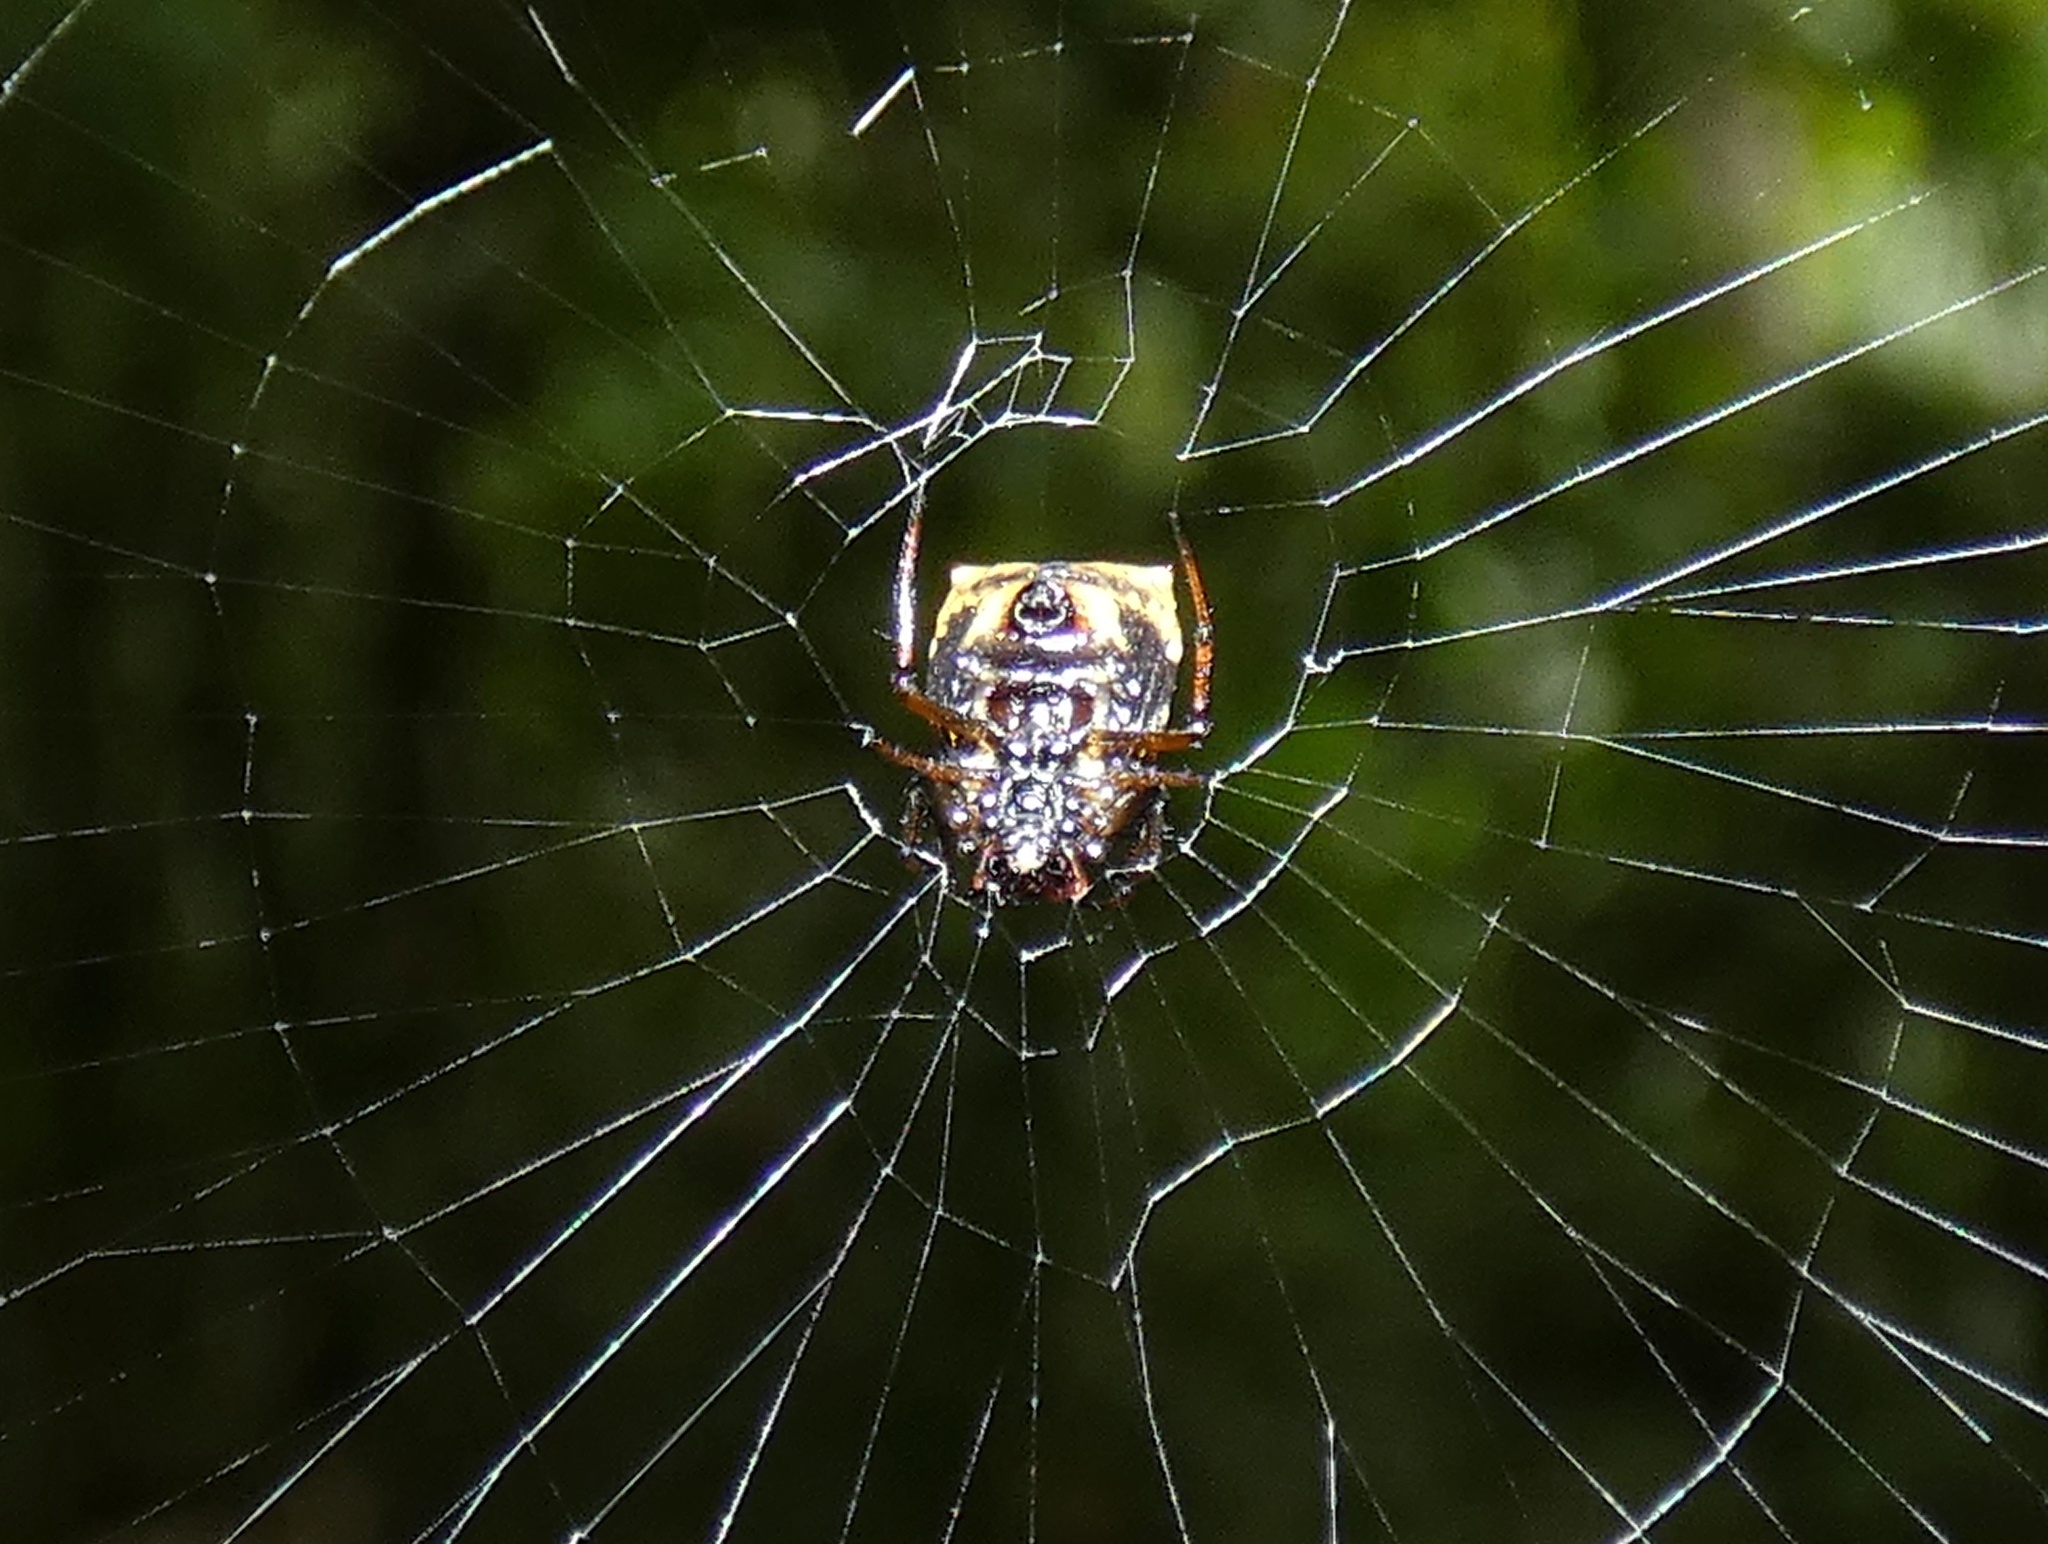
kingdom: Animalia
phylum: Arthropoda
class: Arachnida
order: Araneae
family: Araneidae
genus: Micrathena
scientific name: Micrathena saccata
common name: Orb weavers
